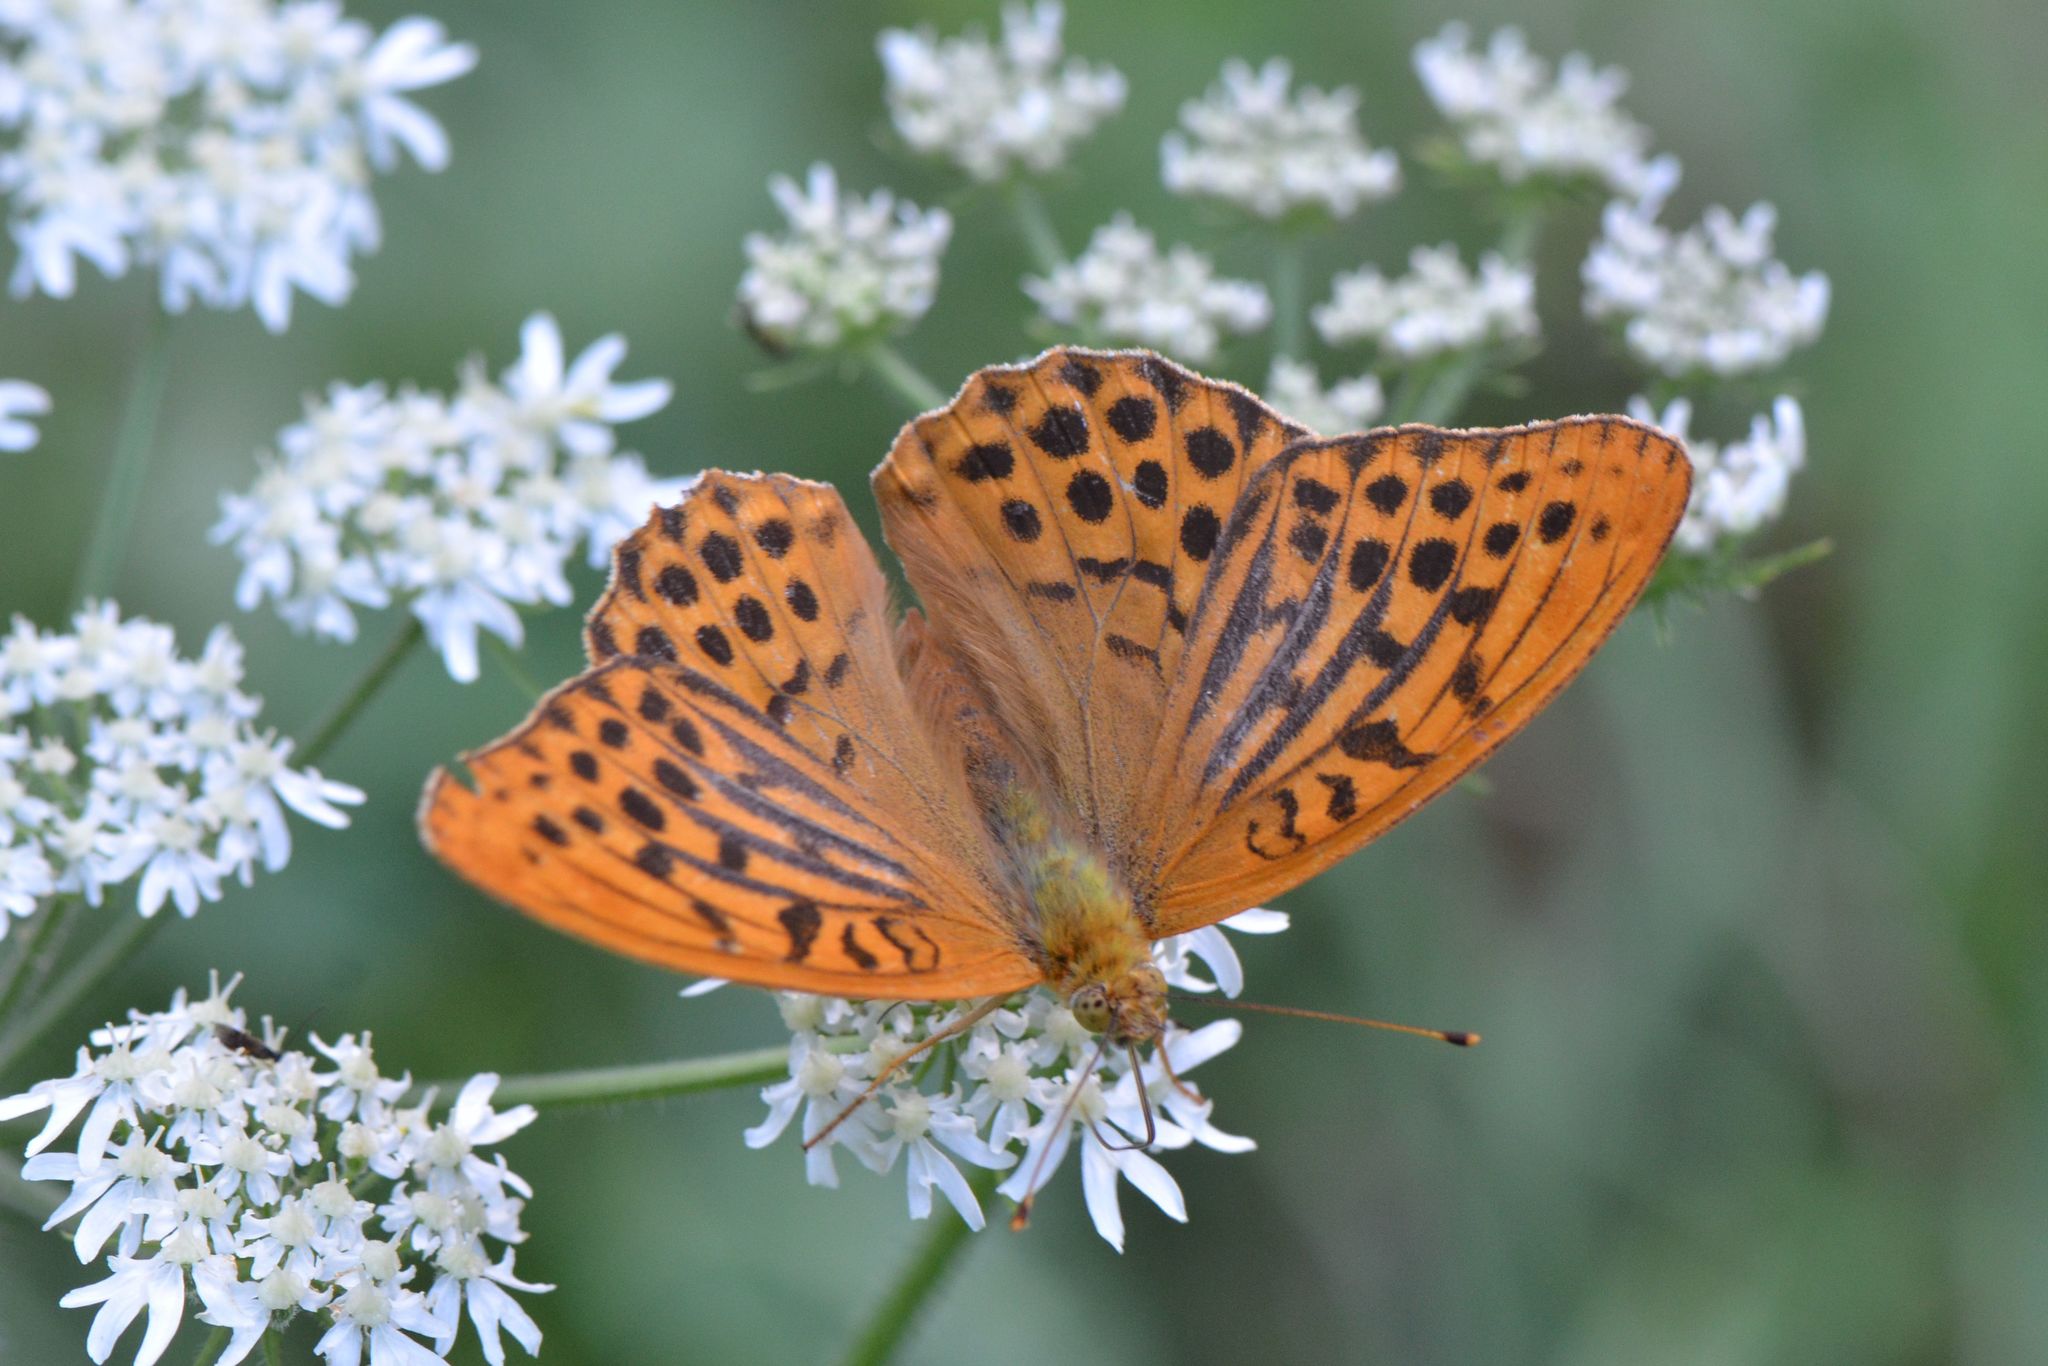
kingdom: Animalia
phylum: Arthropoda
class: Insecta
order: Lepidoptera
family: Nymphalidae
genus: Argynnis
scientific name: Argynnis paphia
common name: Silver-washed fritillary
